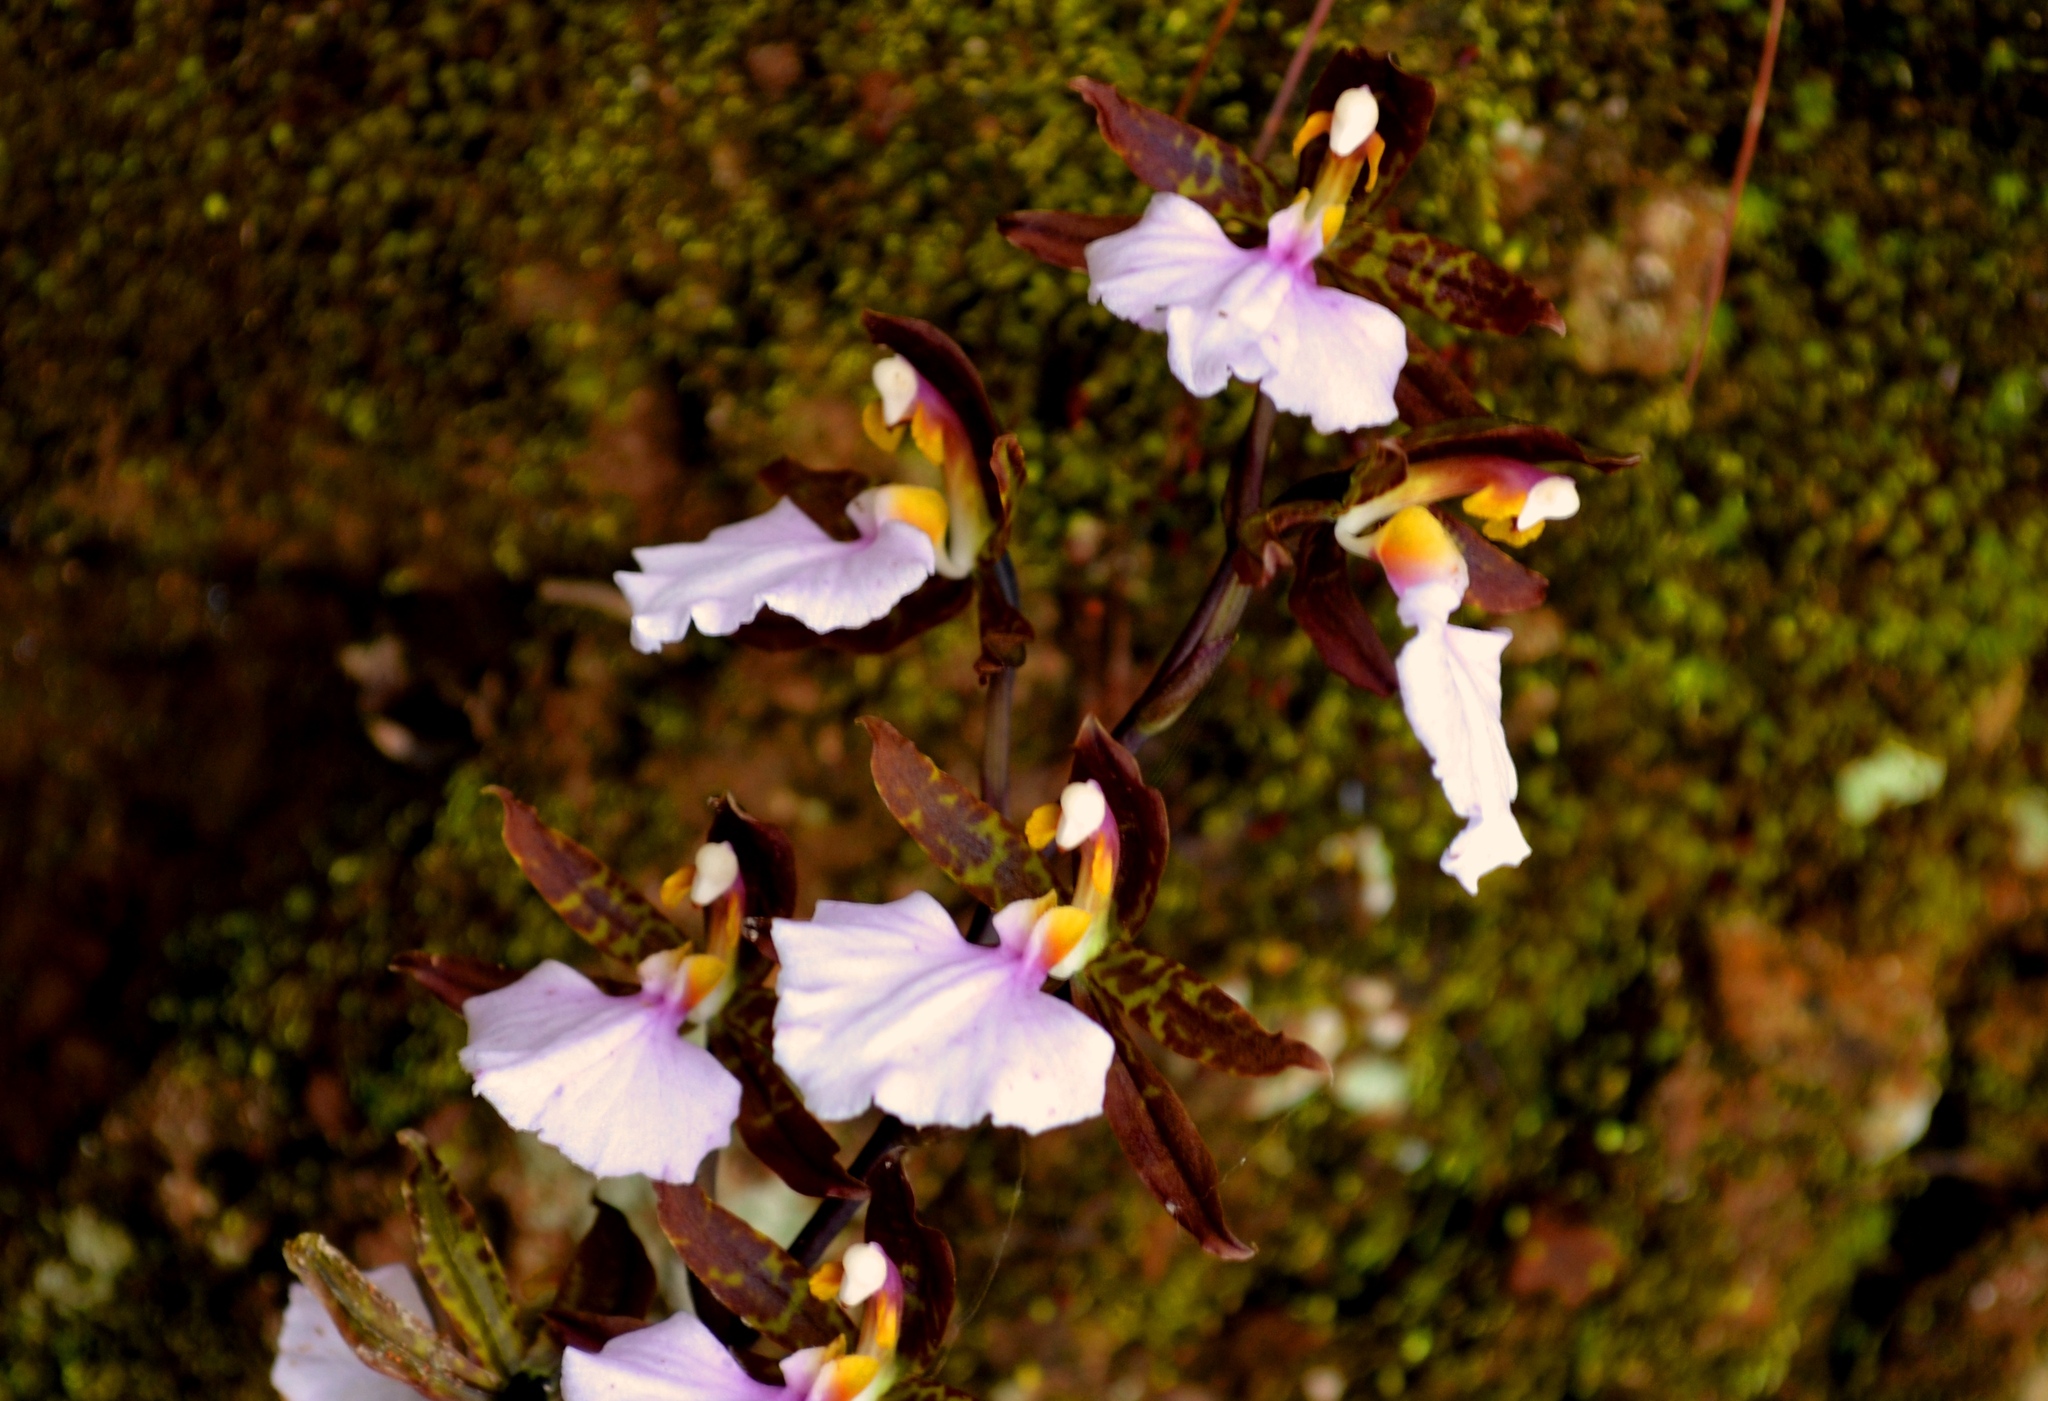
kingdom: Plantae
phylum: Tracheophyta
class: Liliopsida
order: Asparagales
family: Orchidaceae
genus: Rhynchostele
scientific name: Rhynchostele bictoniensis
